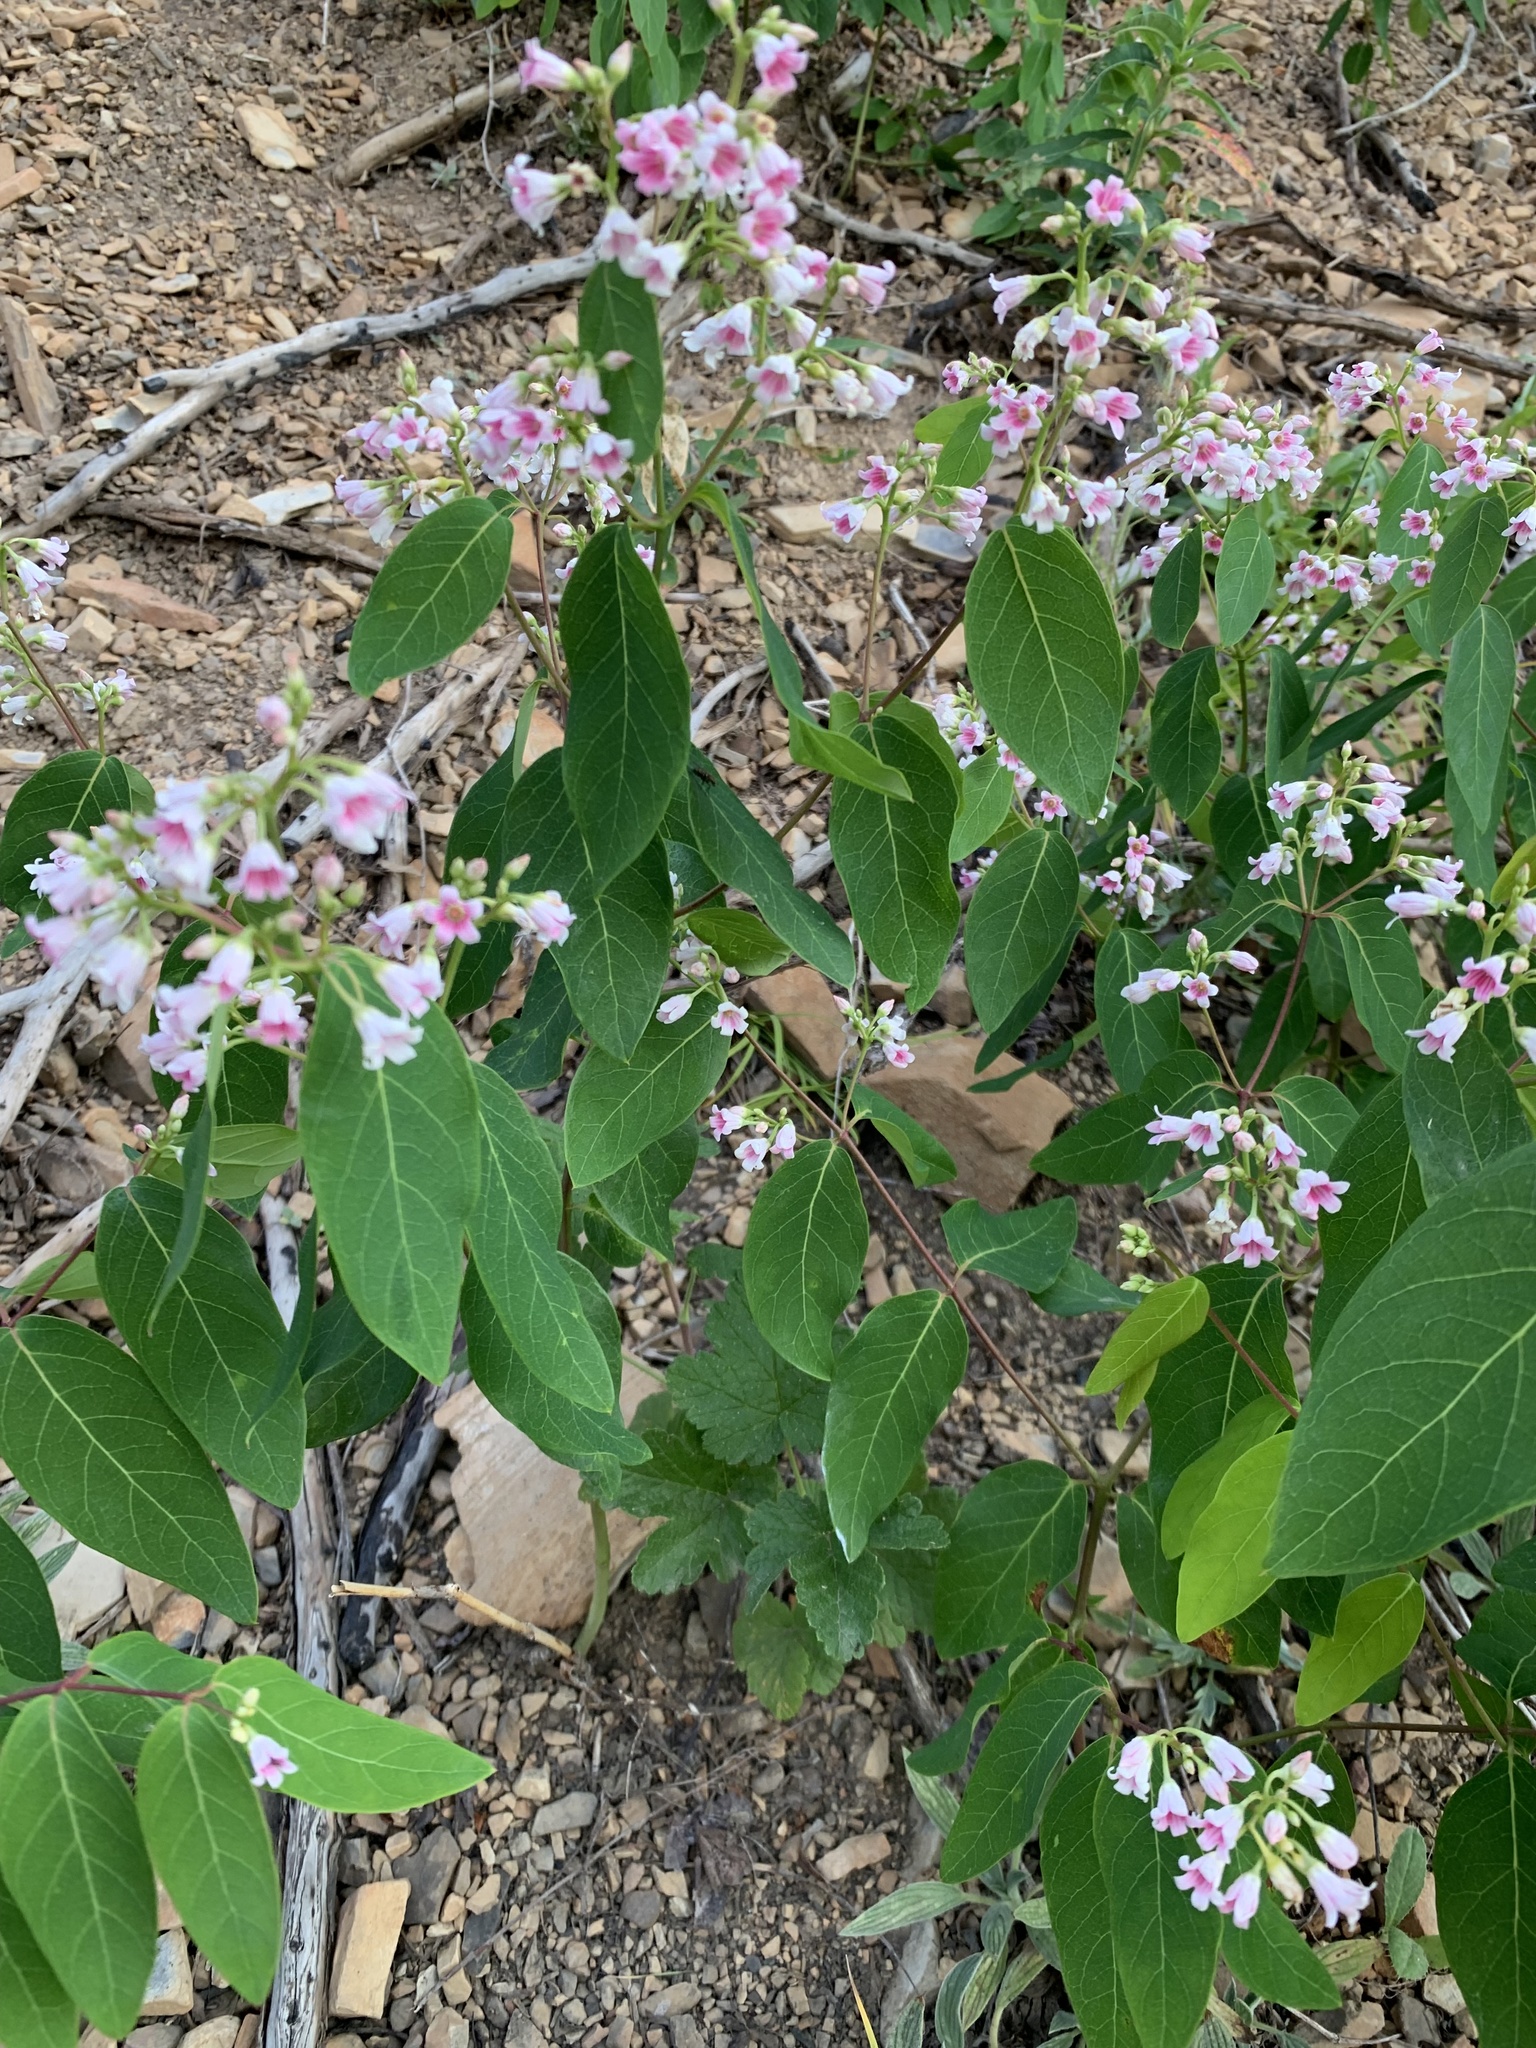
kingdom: Plantae
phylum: Tracheophyta
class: Magnoliopsida
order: Gentianales
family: Apocynaceae
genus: Apocynum
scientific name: Apocynum androsaemifolium
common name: Spreading dogbane
